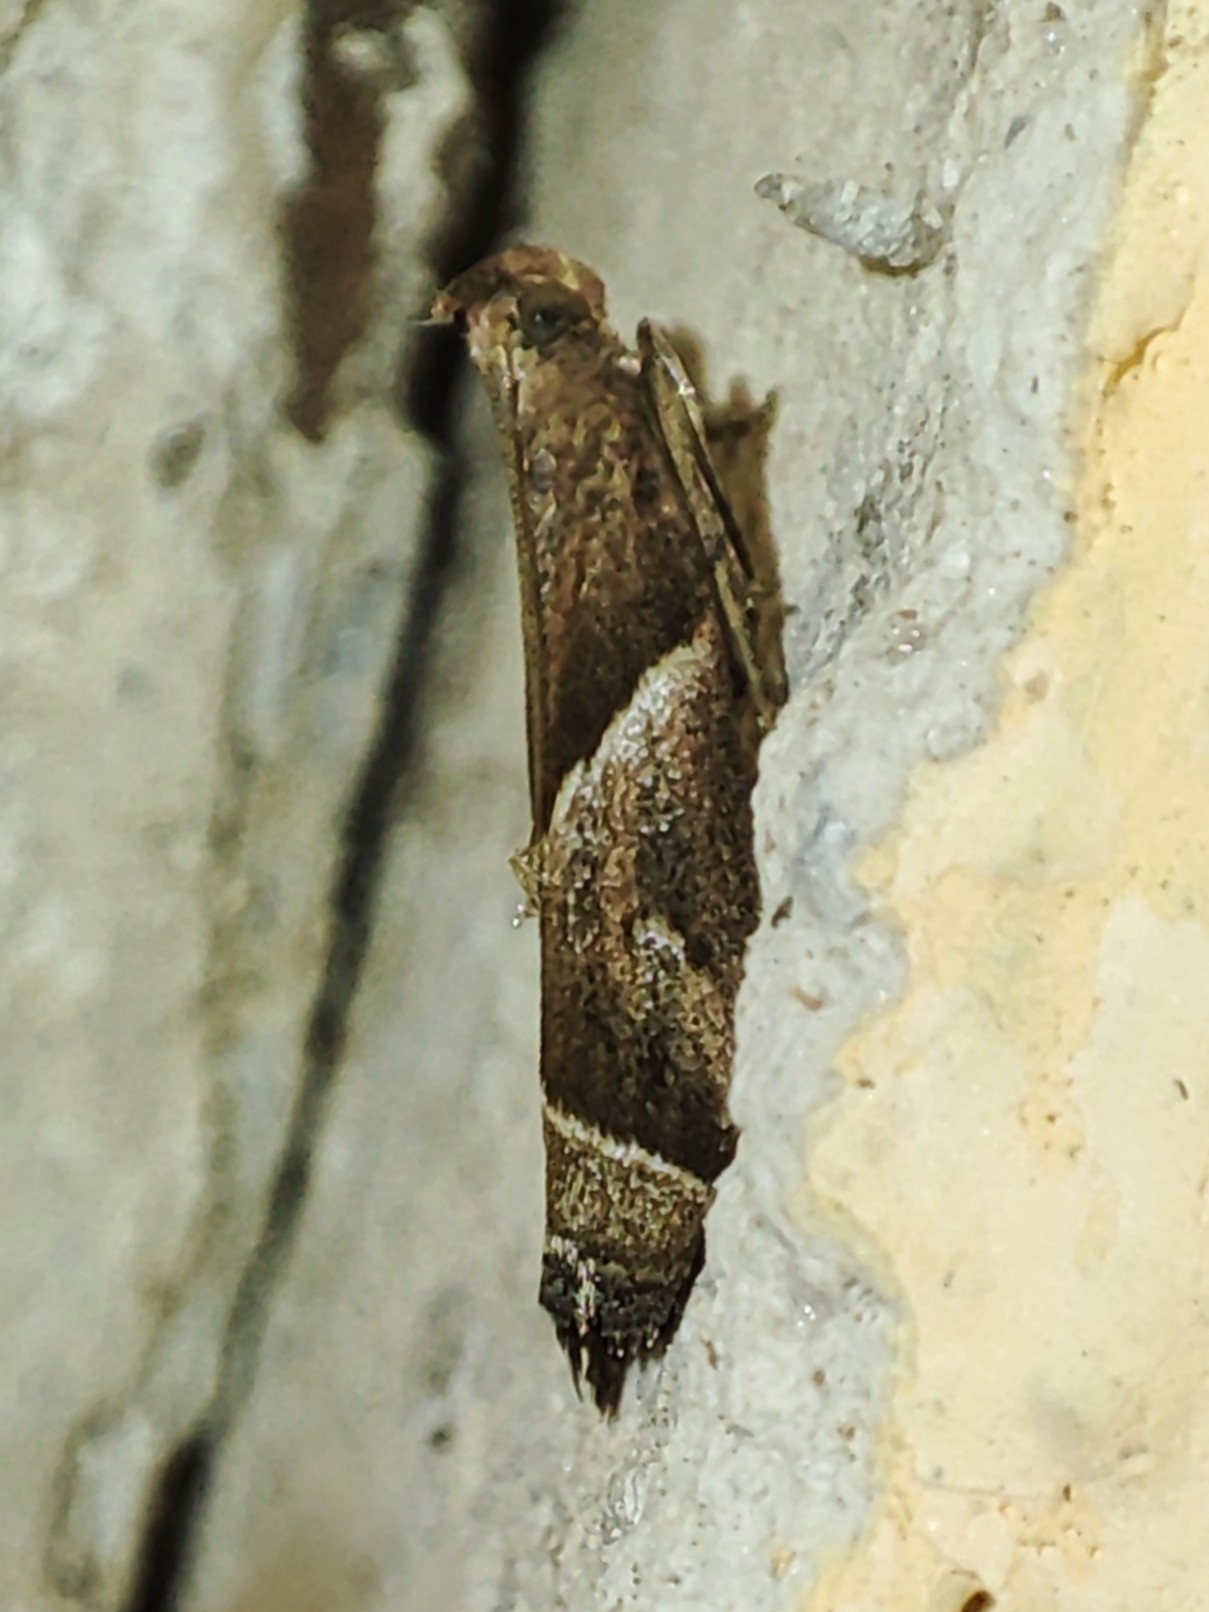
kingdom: Animalia
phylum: Arthropoda
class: Insecta
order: Lepidoptera
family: Pyralidae
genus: Nyctegretis
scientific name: Nyctegretis lineana
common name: Agate knot-horn
